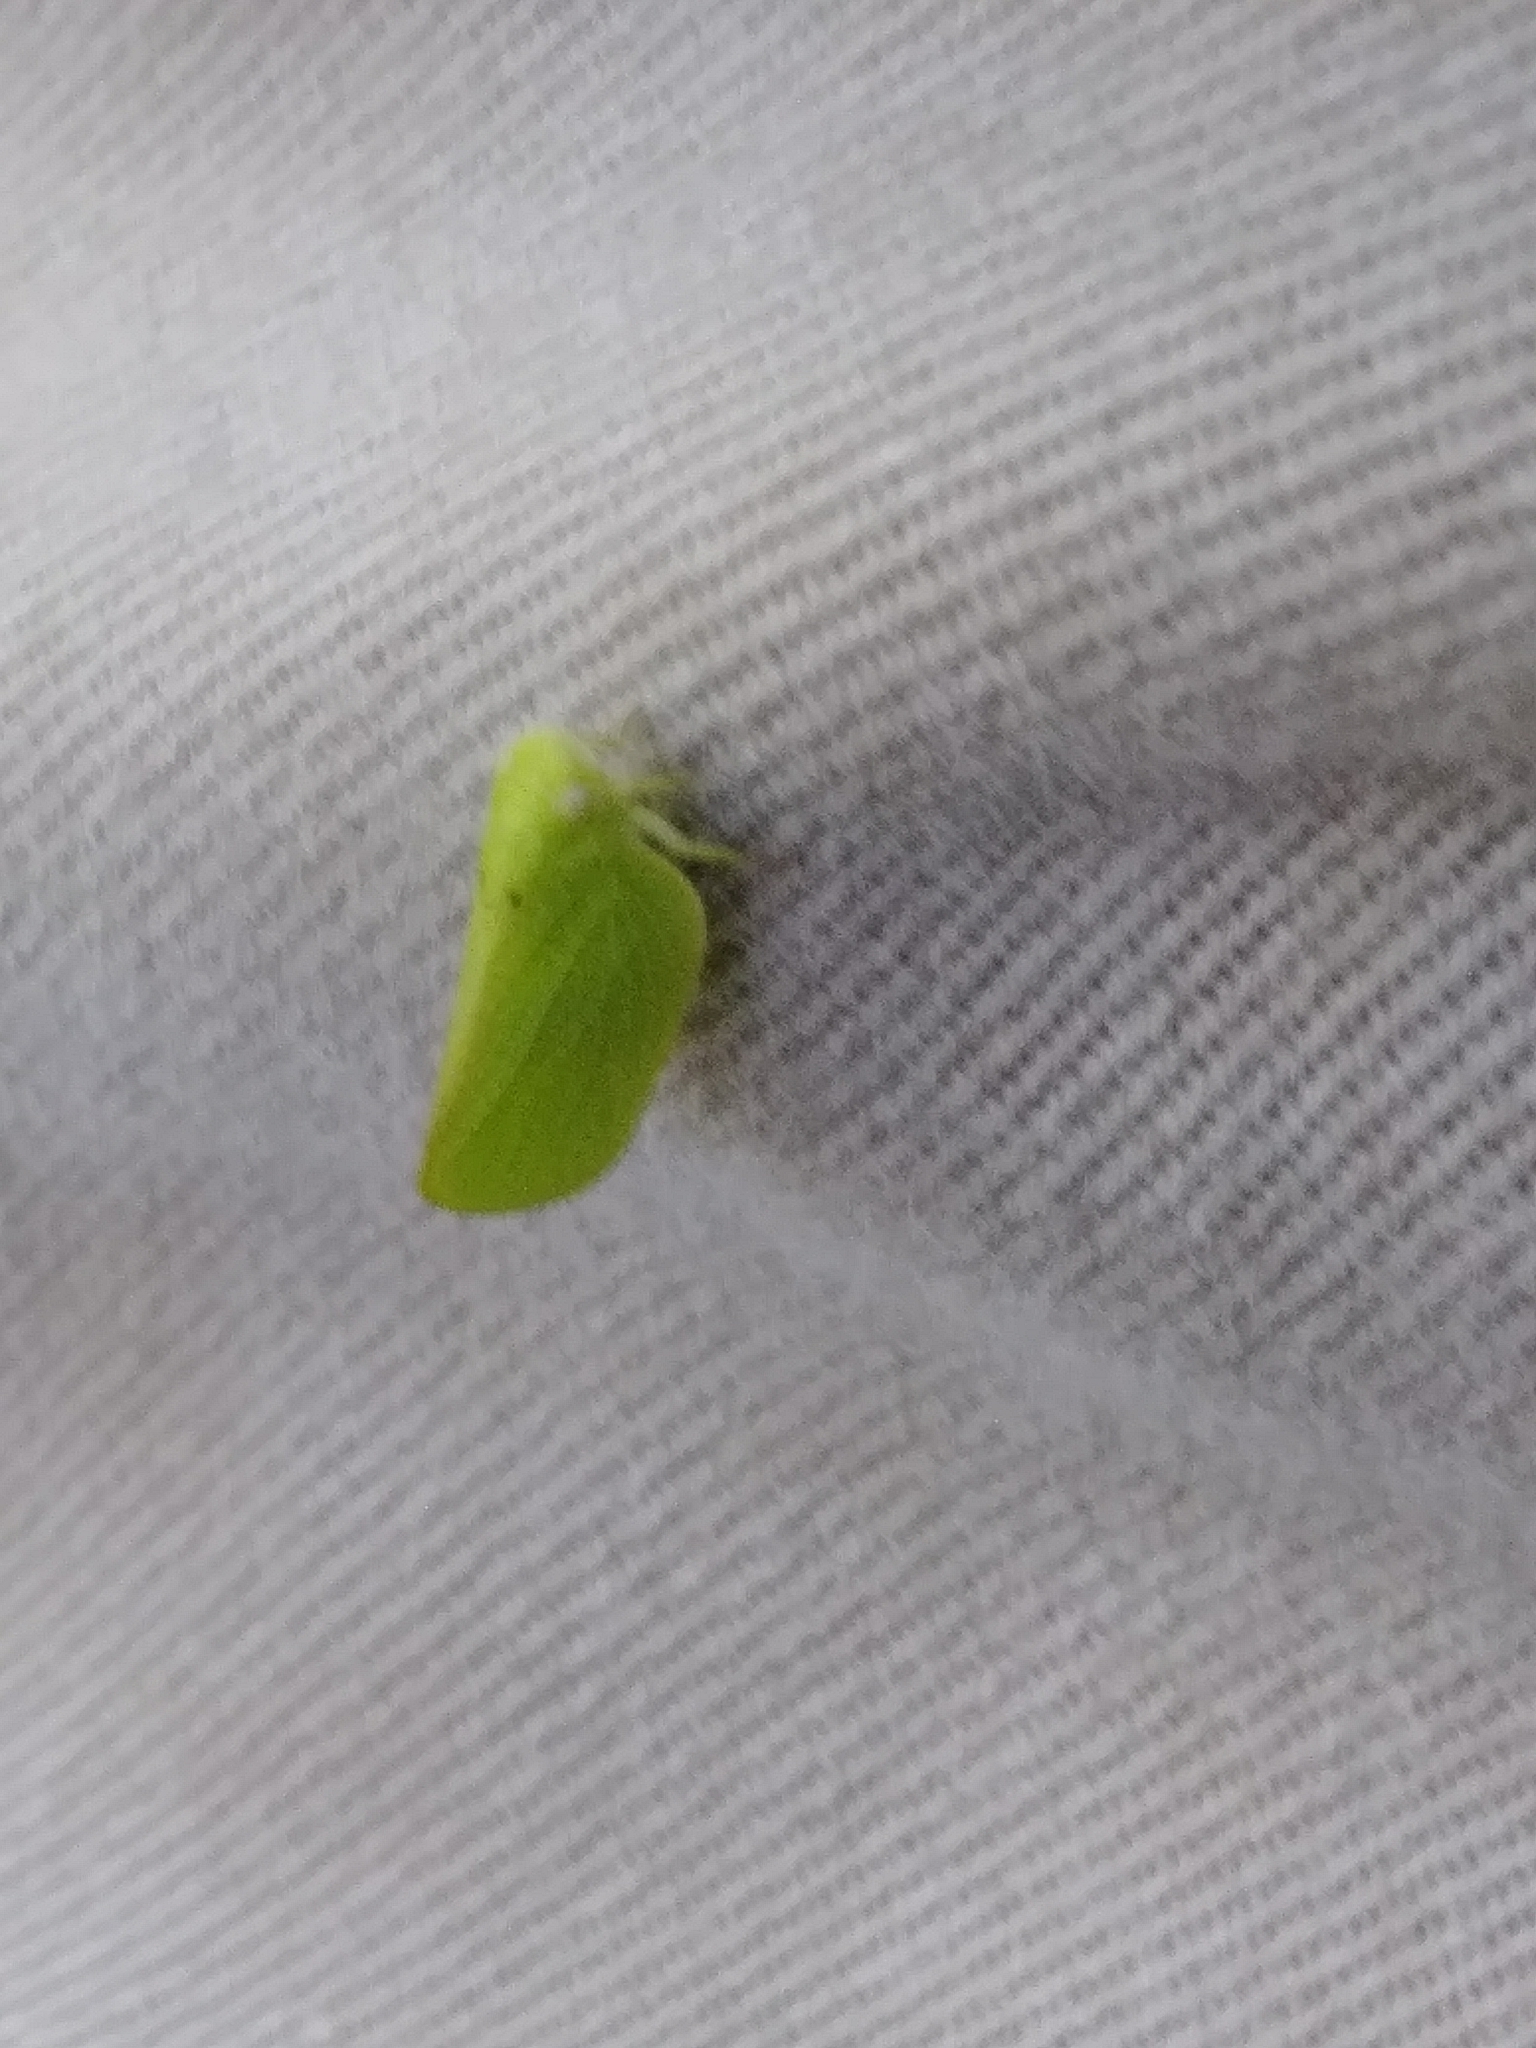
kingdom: Animalia
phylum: Arthropoda
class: Insecta
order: Hemiptera
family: Acanaloniidae
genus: Acanalonia
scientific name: Acanalonia conica
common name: Green cone-headed planthopper
